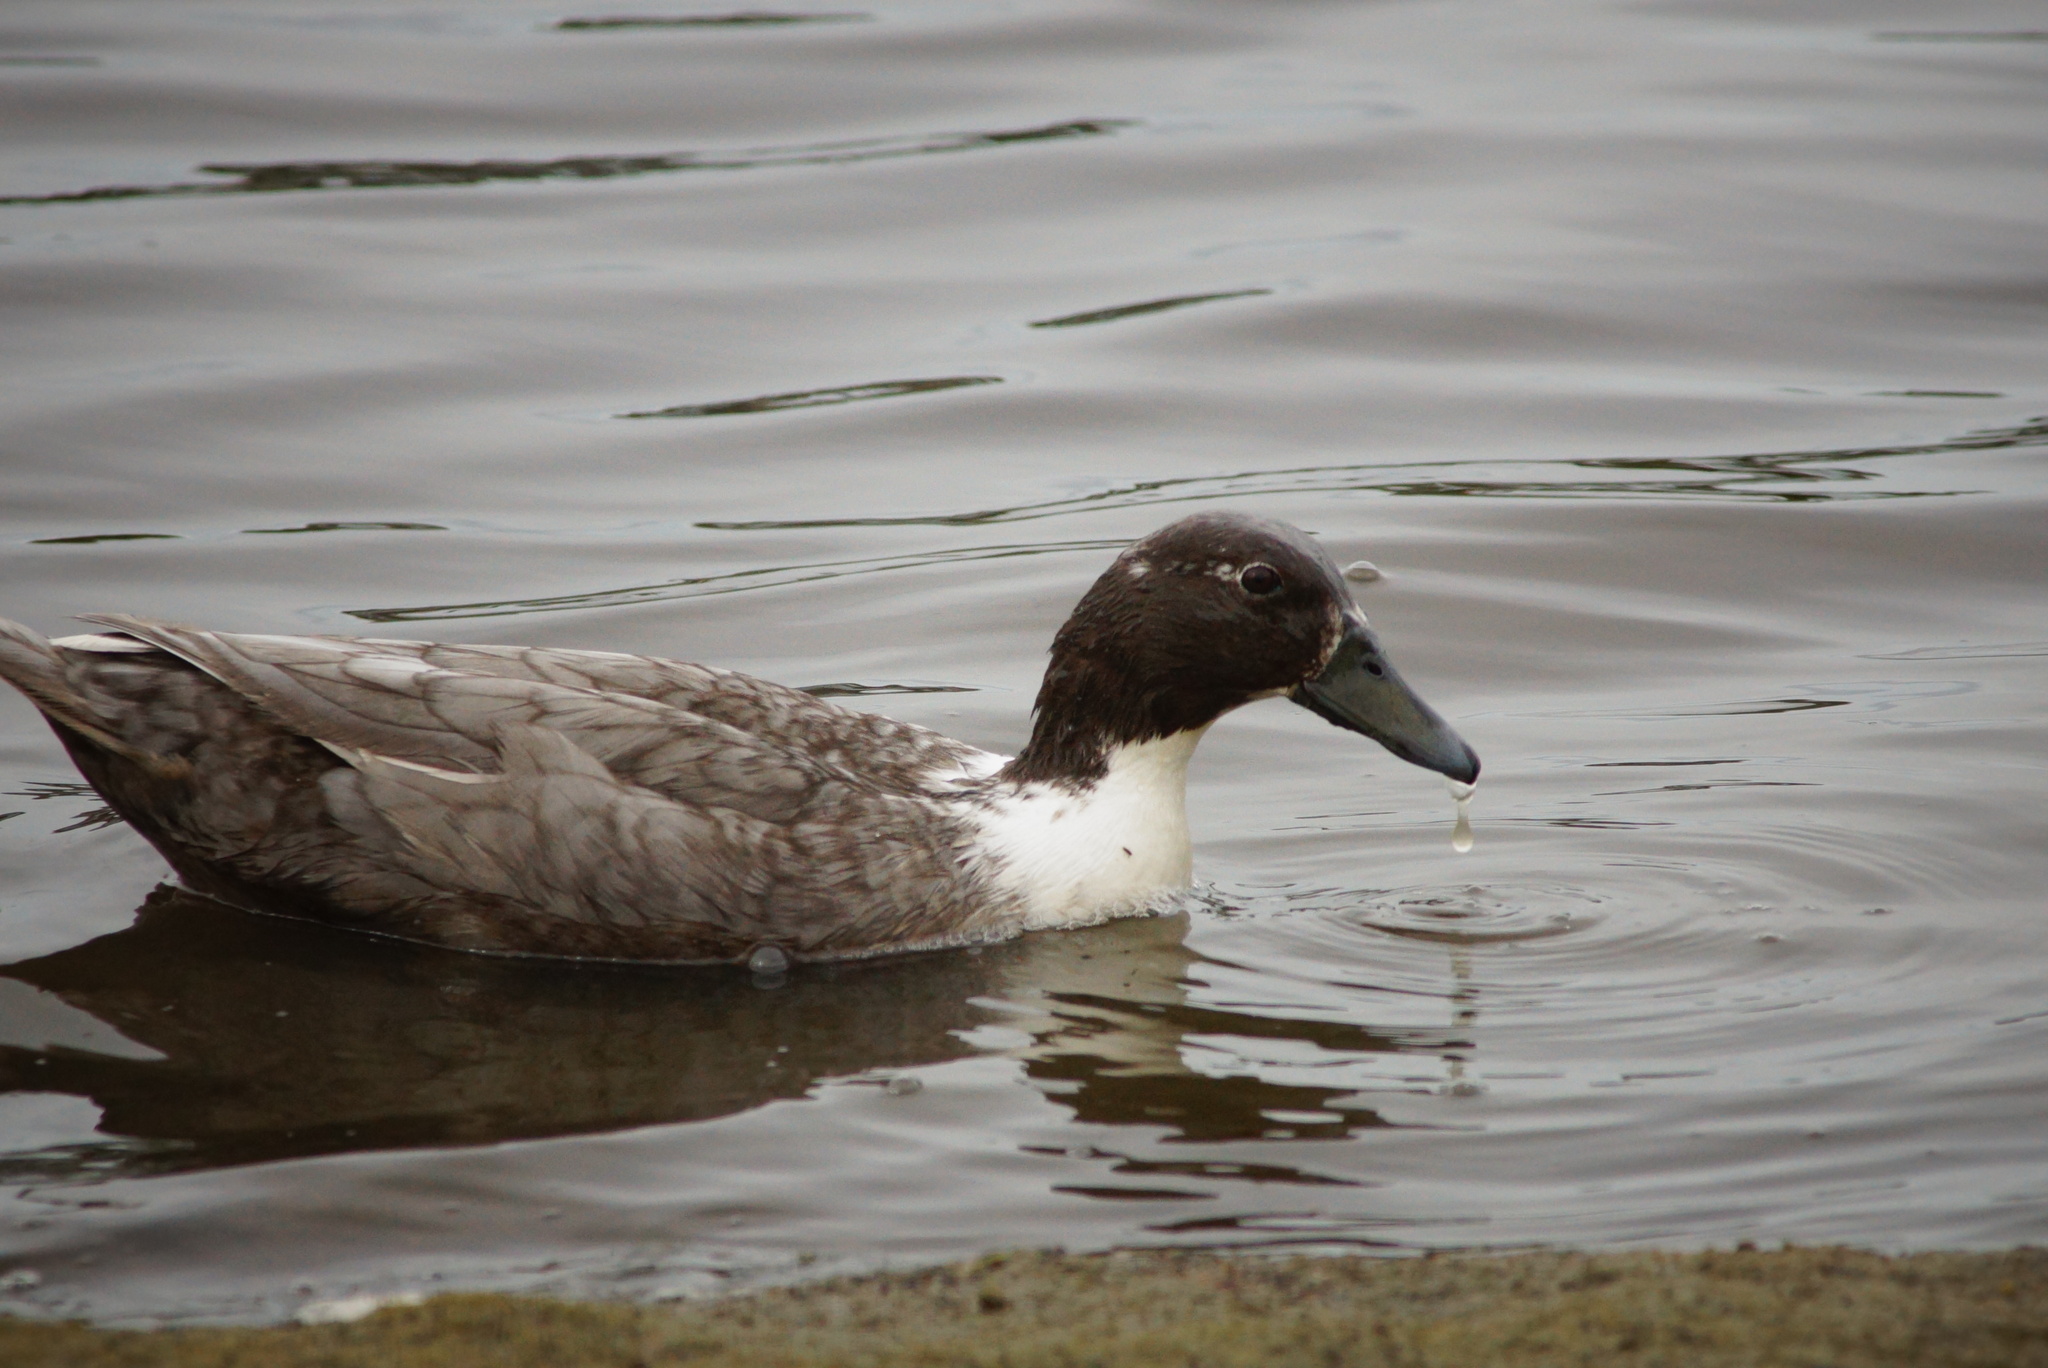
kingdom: Animalia
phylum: Chordata
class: Aves
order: Anseriformes
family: Anatidae
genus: Anas
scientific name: Anas platyrhynchos
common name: Mallard
